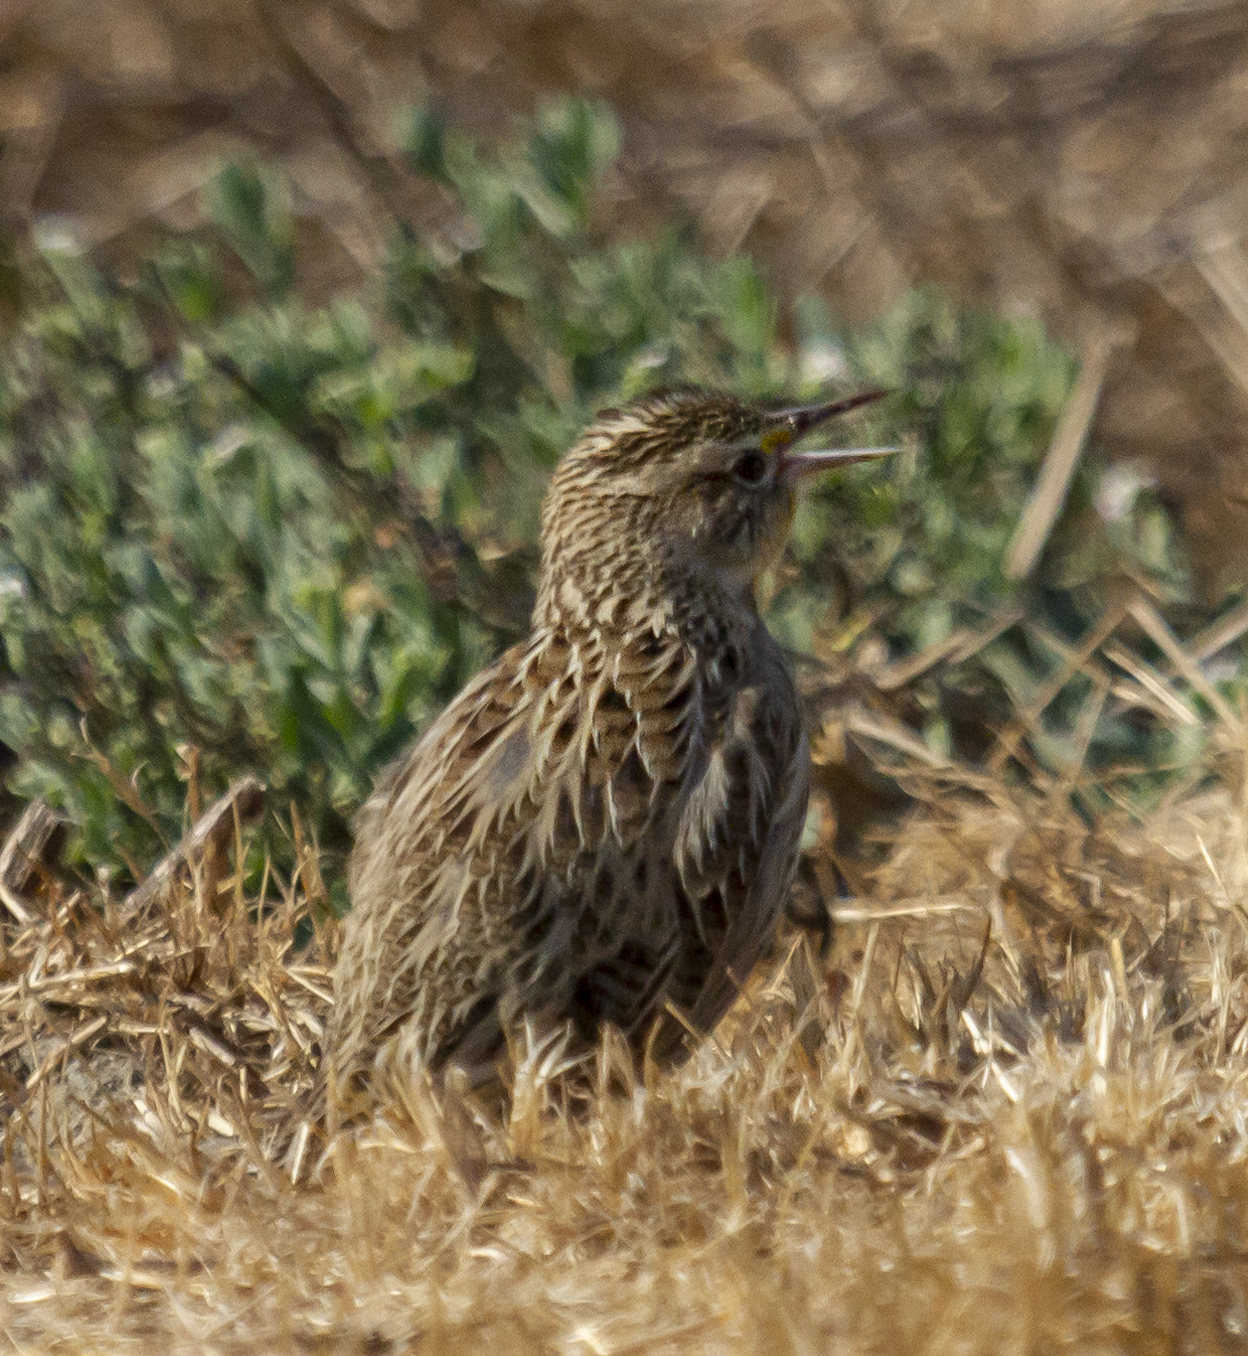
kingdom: Animalia
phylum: Chordata
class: Aves
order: Passeriformes
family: Icteridae
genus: Sturnella
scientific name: Sturnella neglecta
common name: Western meadowlark
